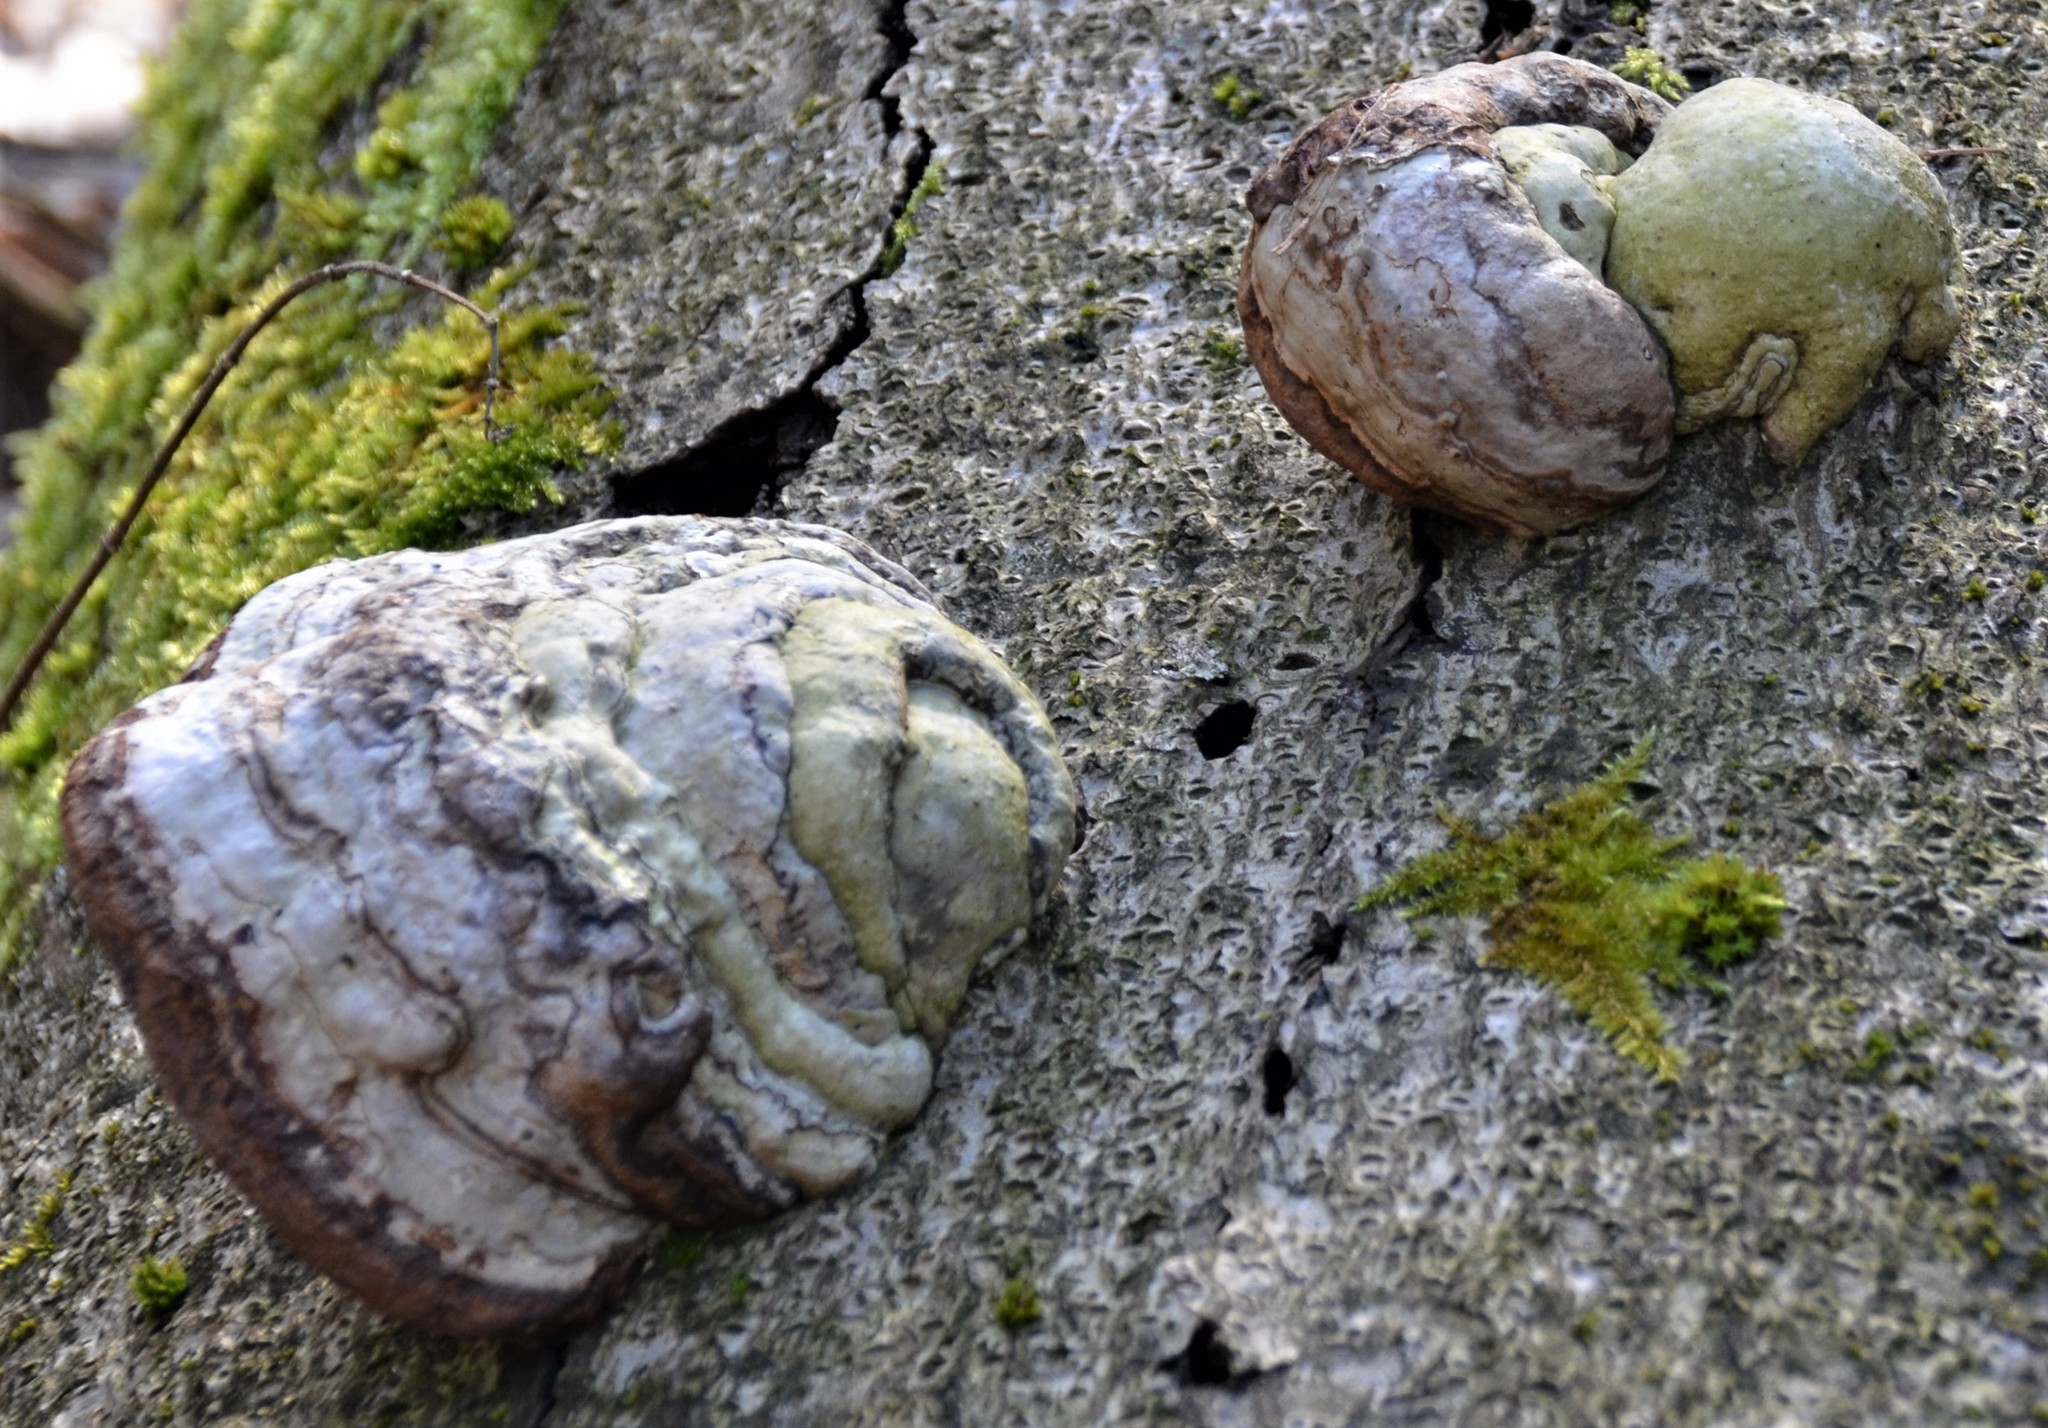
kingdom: Fungi
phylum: Basidiomycota
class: Agaricomycetes
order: Polyporales
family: Polyporaceae
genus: Fomes
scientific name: Fomes fomentarius
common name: Hoof fungus
